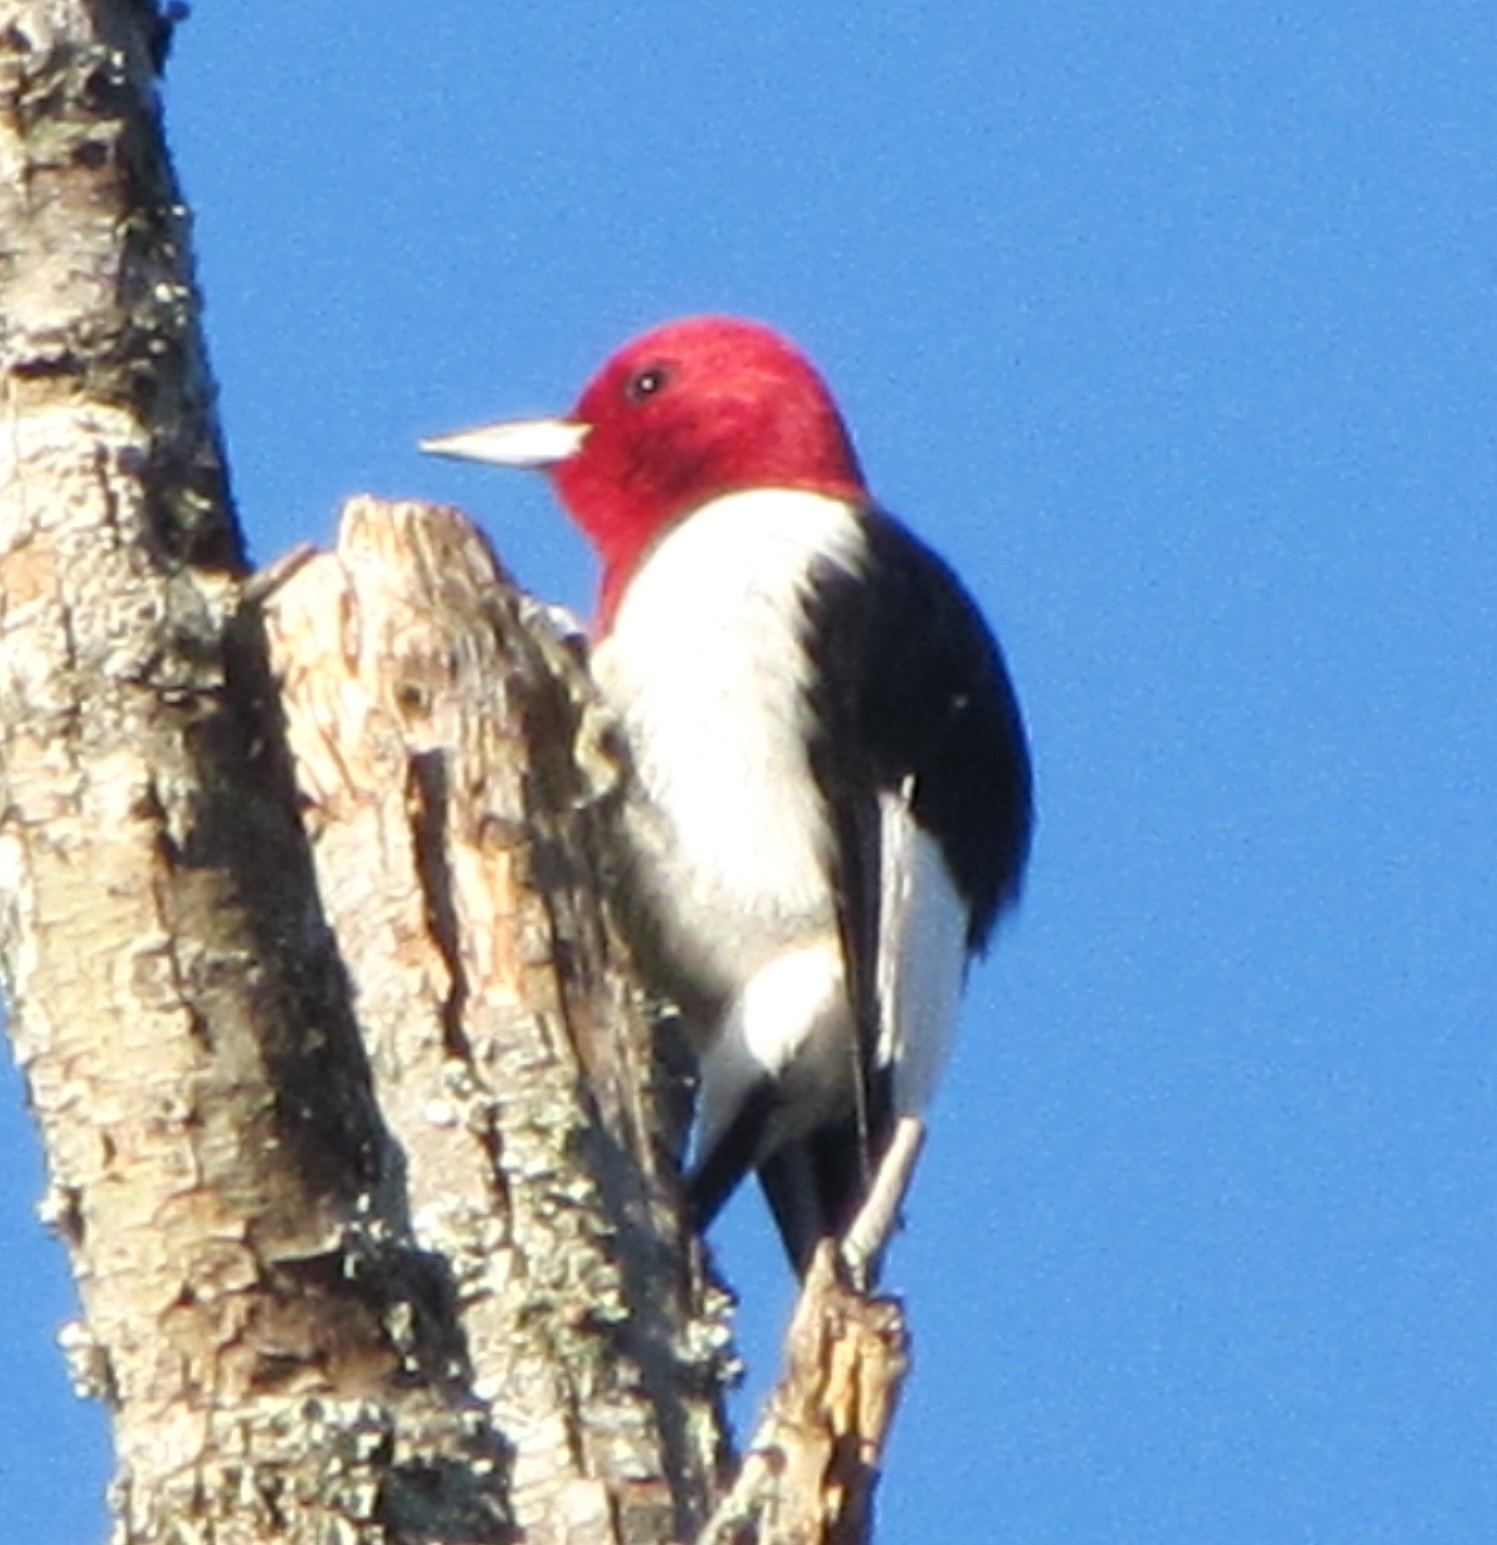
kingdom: Animalia
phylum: Chordata
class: Aves
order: Piciformes
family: Picidae
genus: Melanerpes
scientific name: Melanerpes erythrocephalus
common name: Red-headed woodpecker
